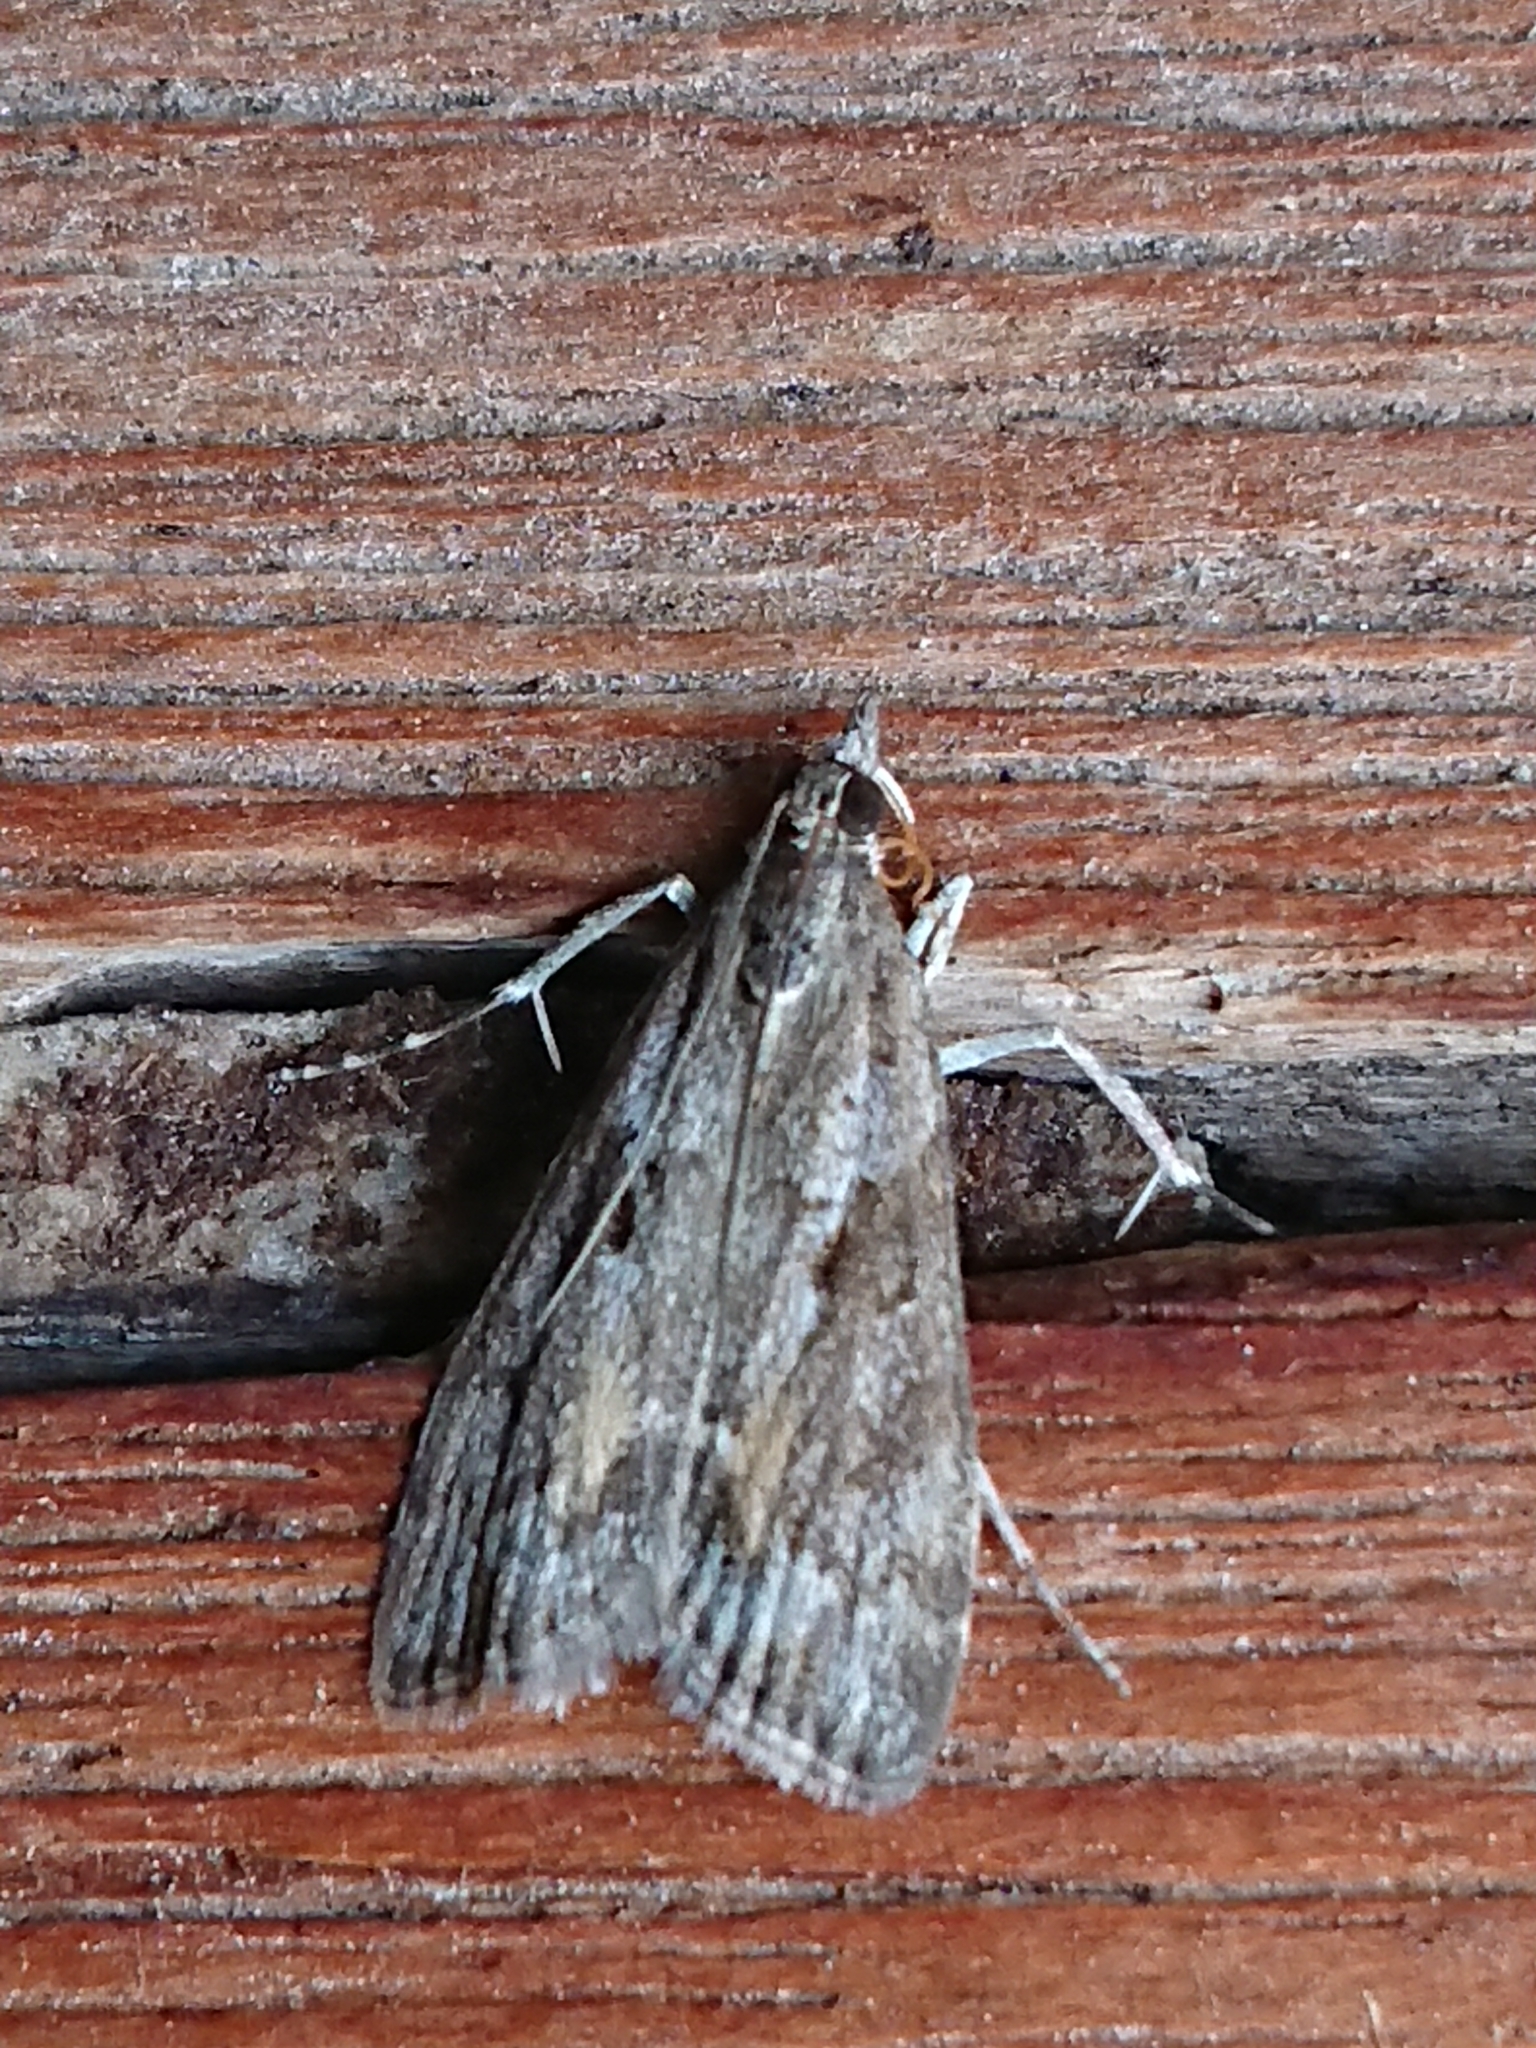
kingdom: Animalia
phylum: Arthropoda
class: Insecta
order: Lepidoptera
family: Crambidae
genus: Eudonia
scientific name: Eudonia submarginalis
